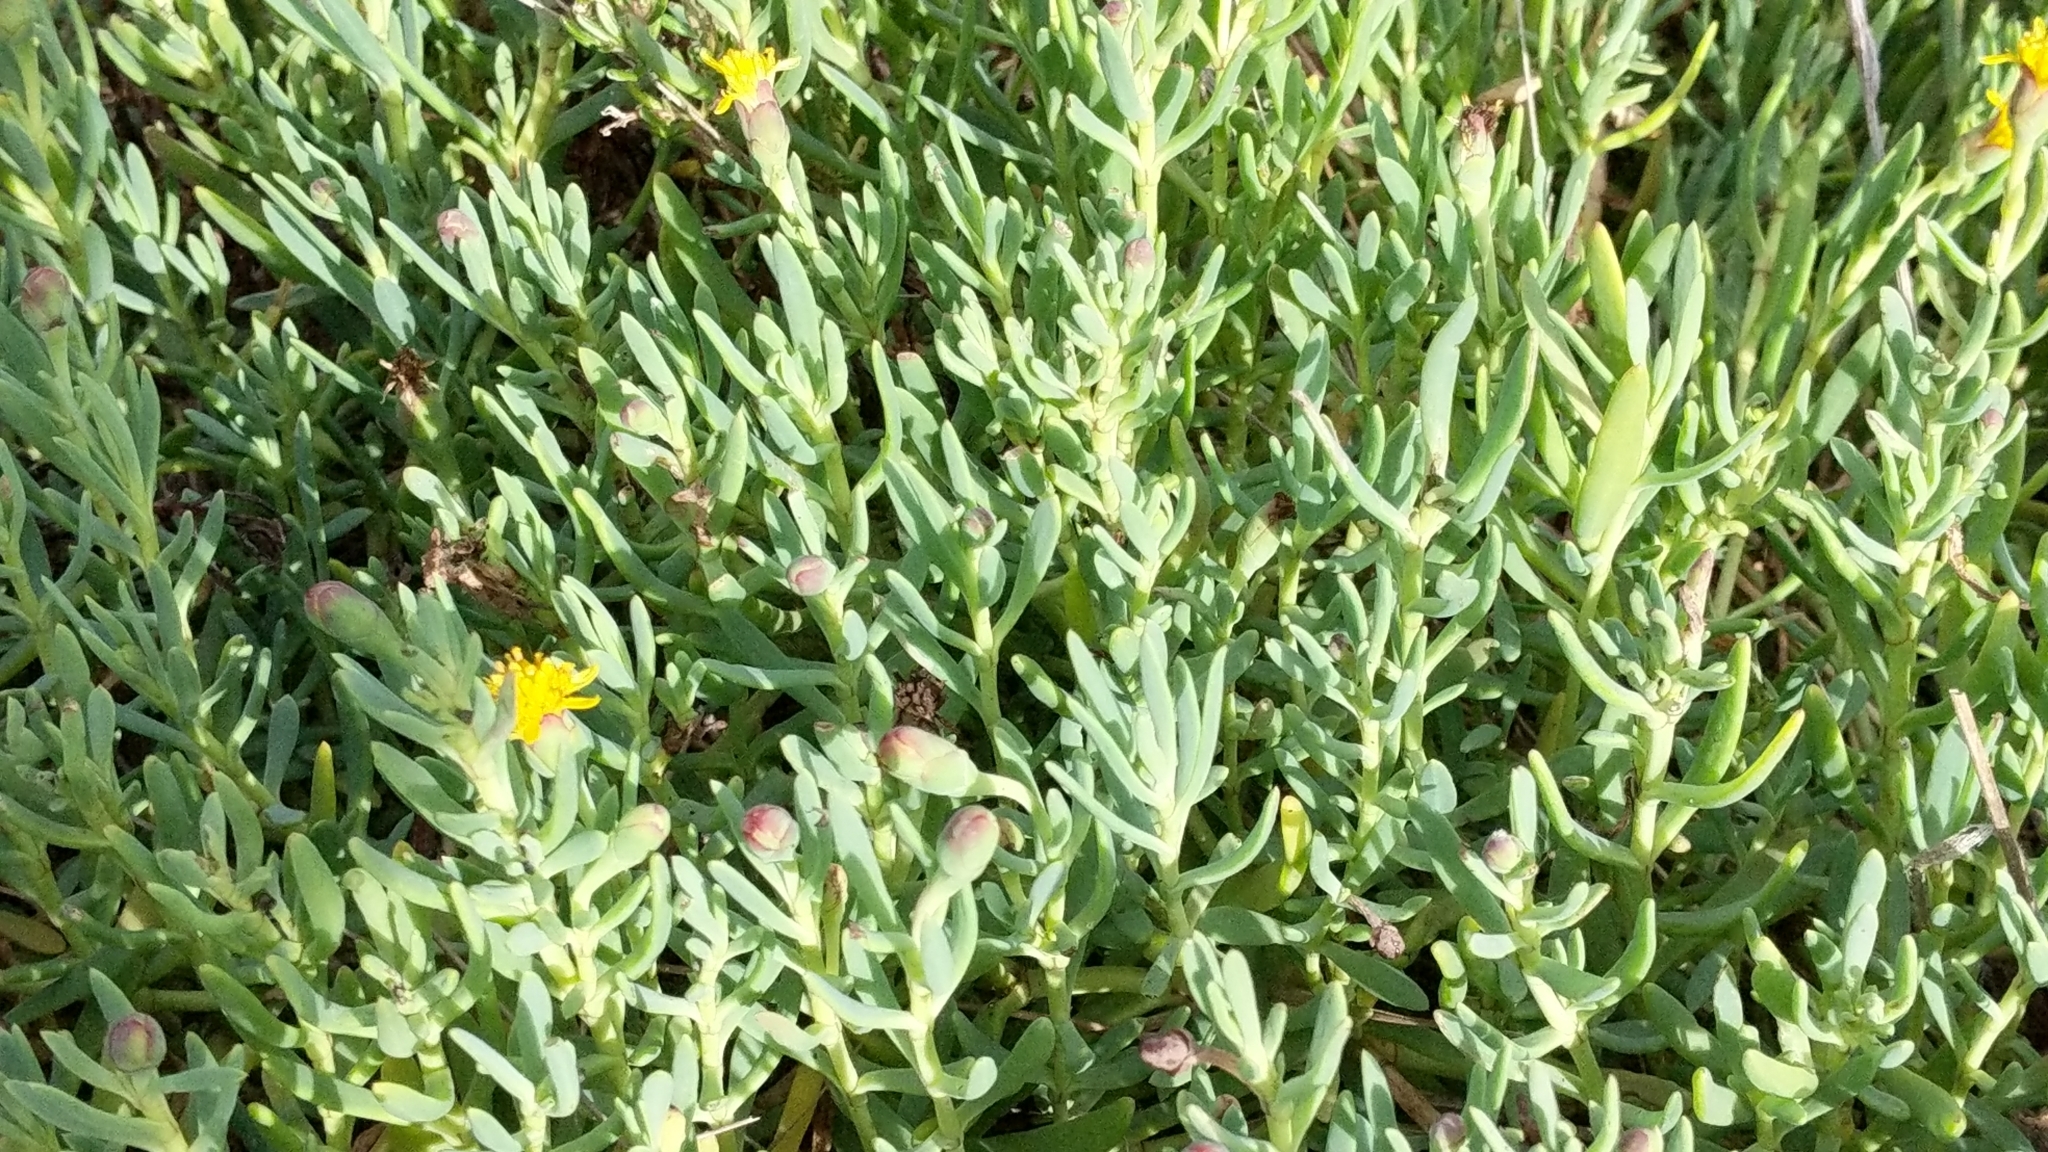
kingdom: Plantae
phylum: Tracheophyta
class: Magnoliopsida
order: Asterales
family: Asteraceae
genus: Jaumea
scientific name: Jaumea carnosa
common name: Fleshy jaumea
